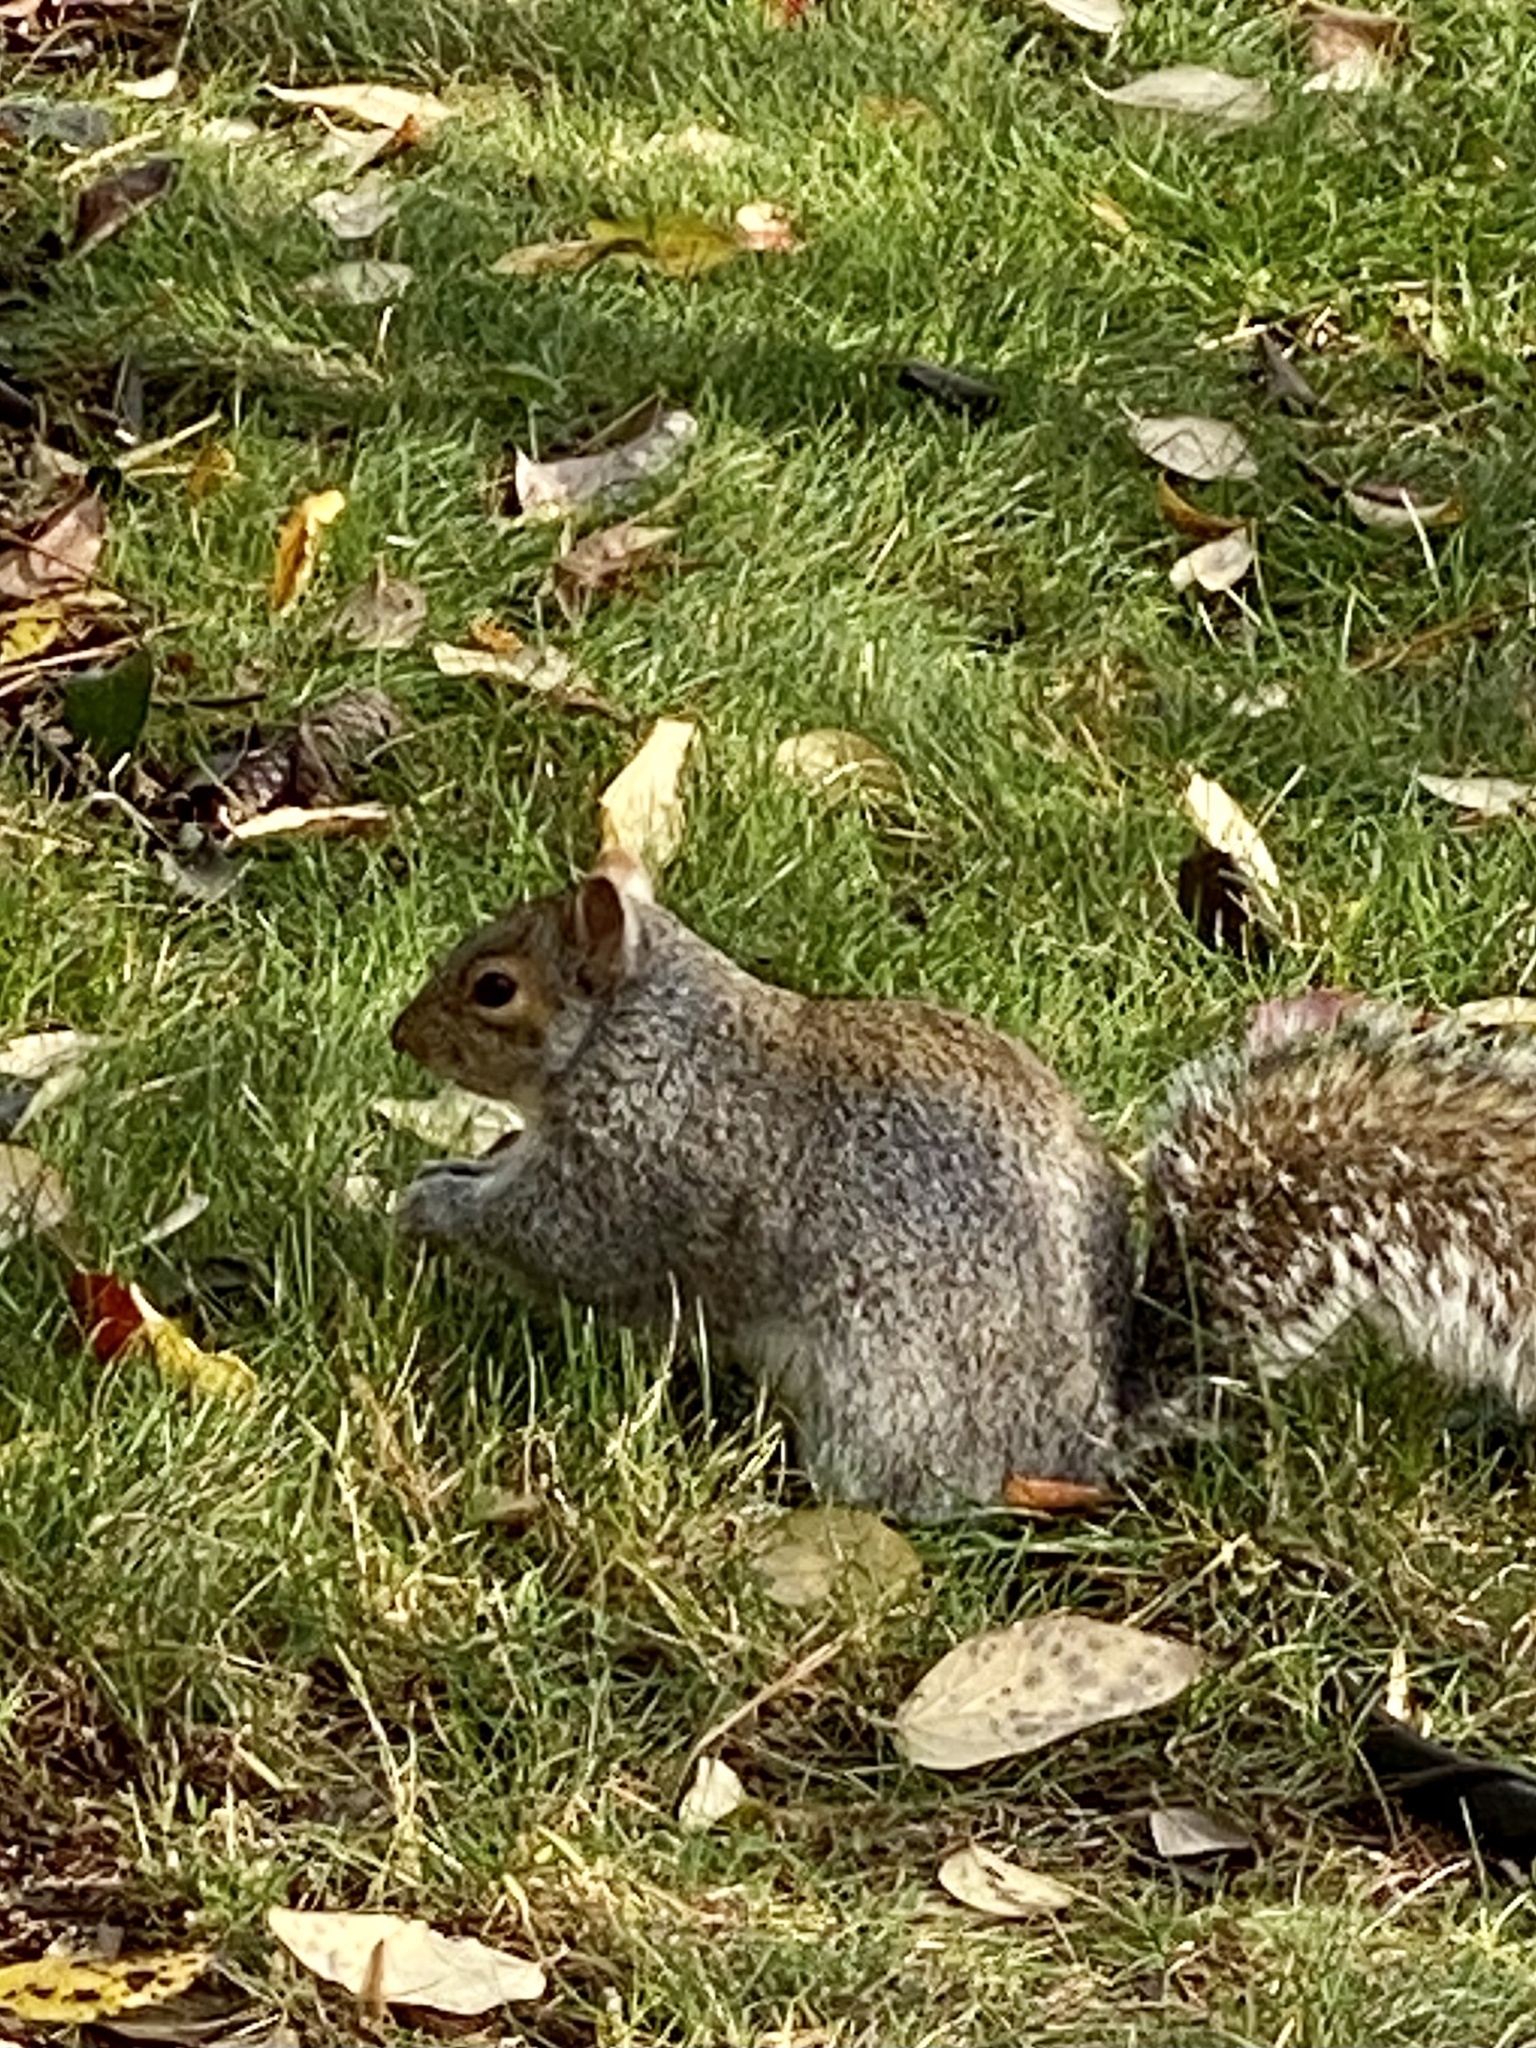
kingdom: Animalia
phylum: Chordata
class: Mammalia
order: Rodentia
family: Sciuridae
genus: Sciurus
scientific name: Sciurus carolinensis
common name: Eastern gray squirrel
